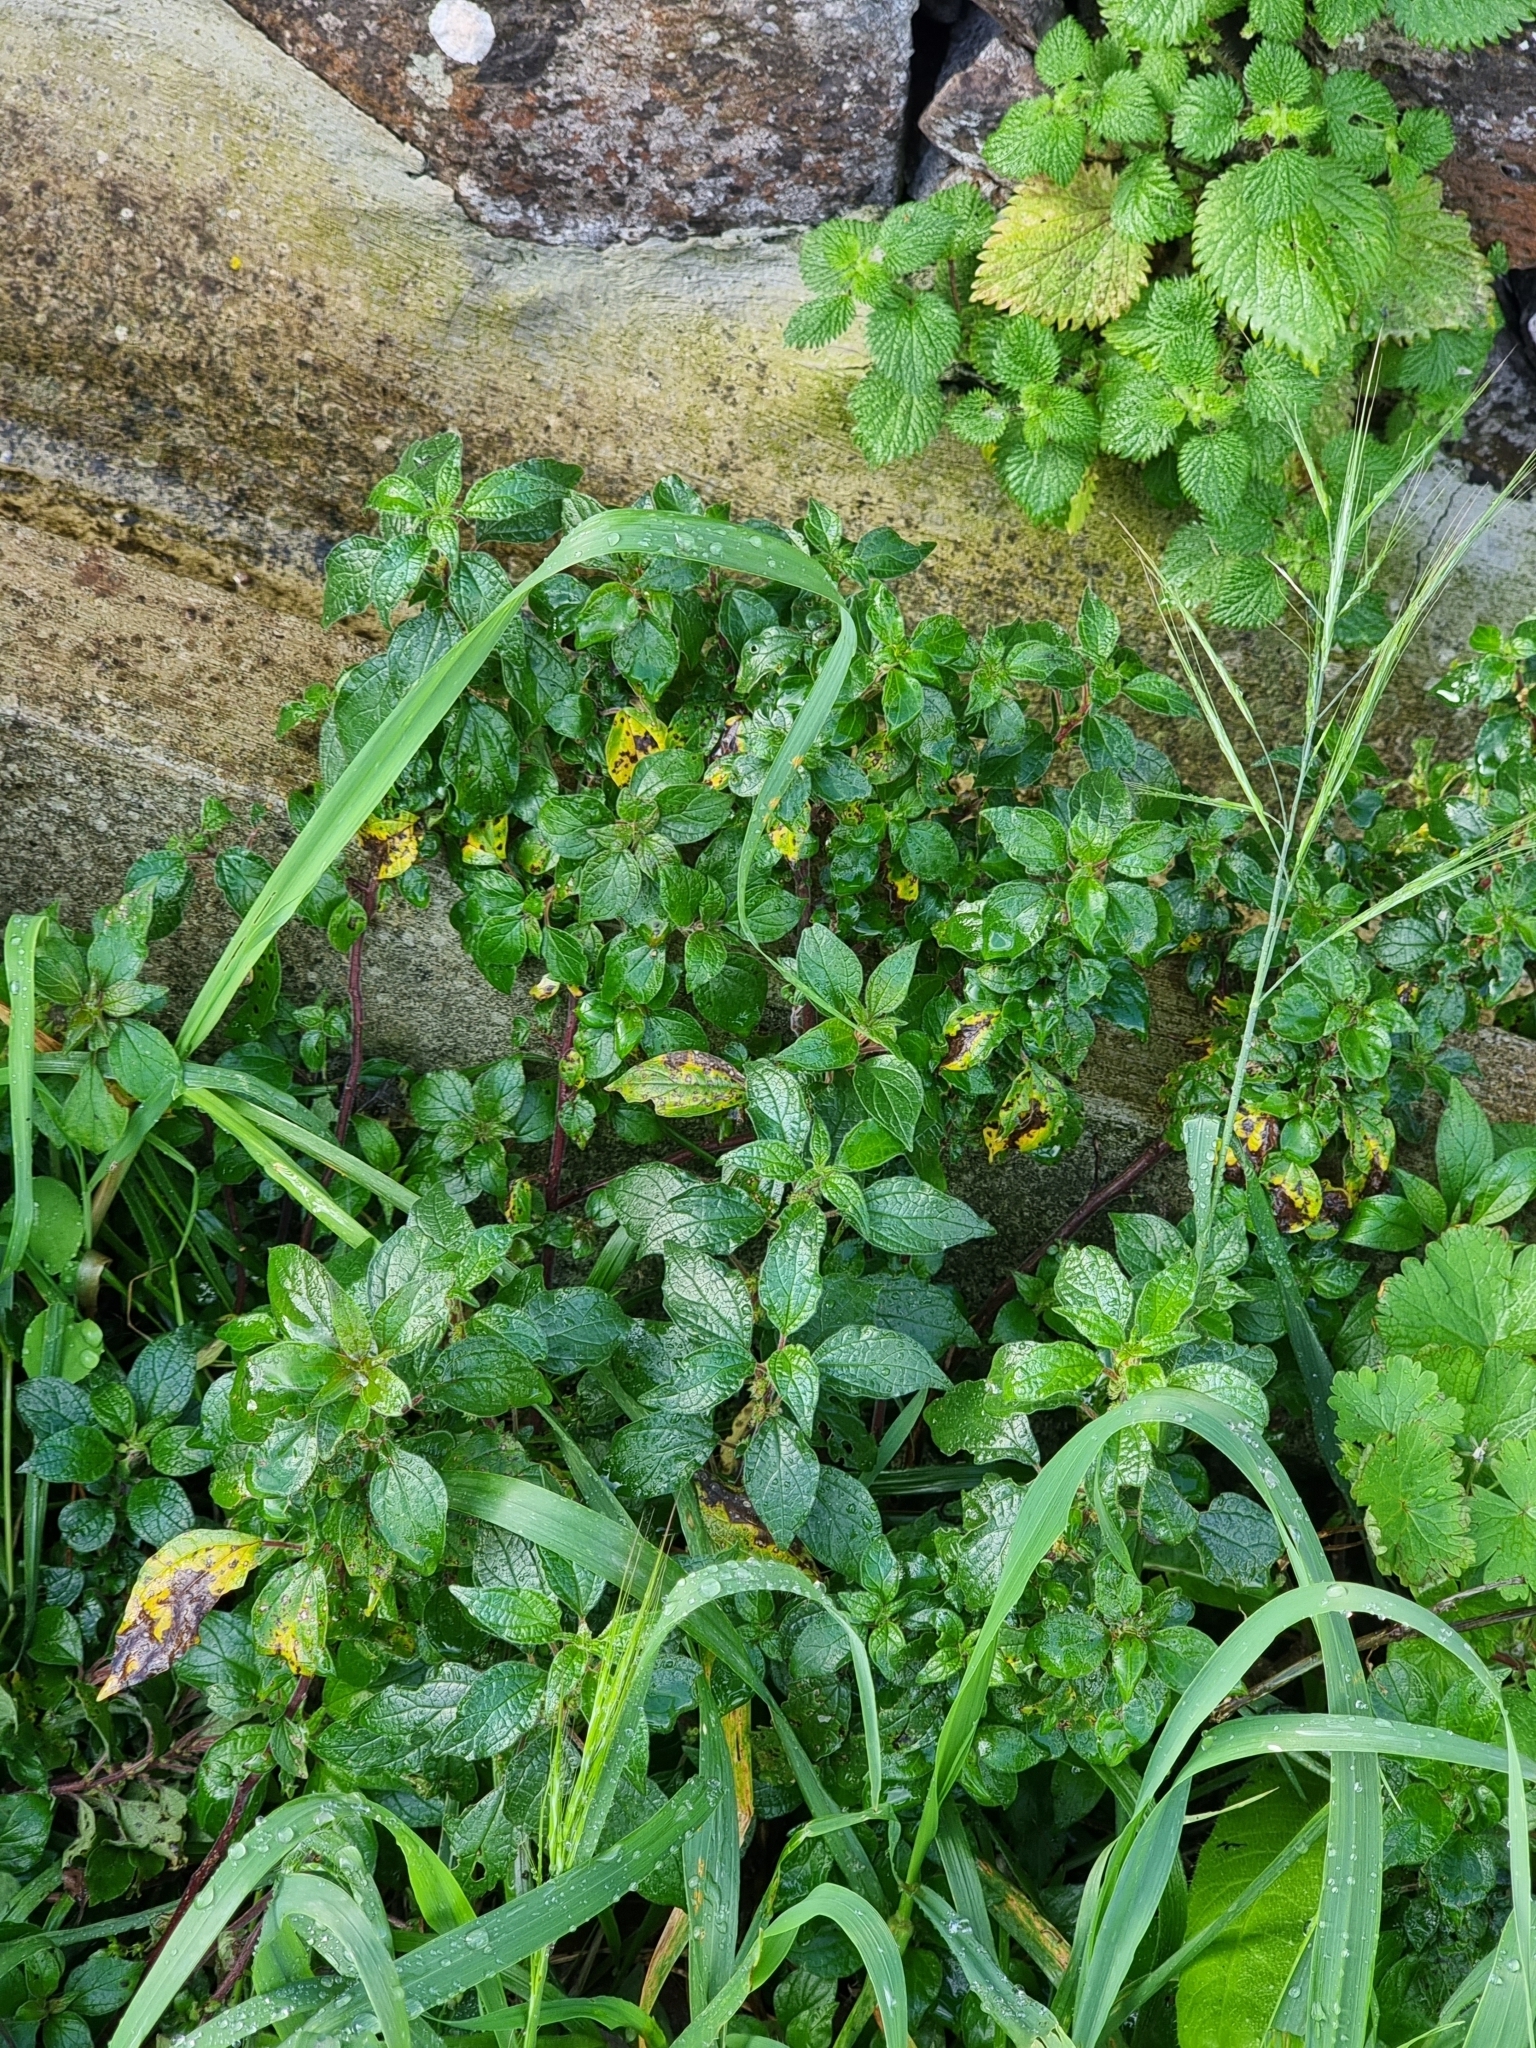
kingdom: Plantae
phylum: Tracheophyta
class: Magnoliopsida
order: Rosales
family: Urticaceae
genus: Parietaria
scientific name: Parietaria judaica
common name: Pellitory-of-the-wall
